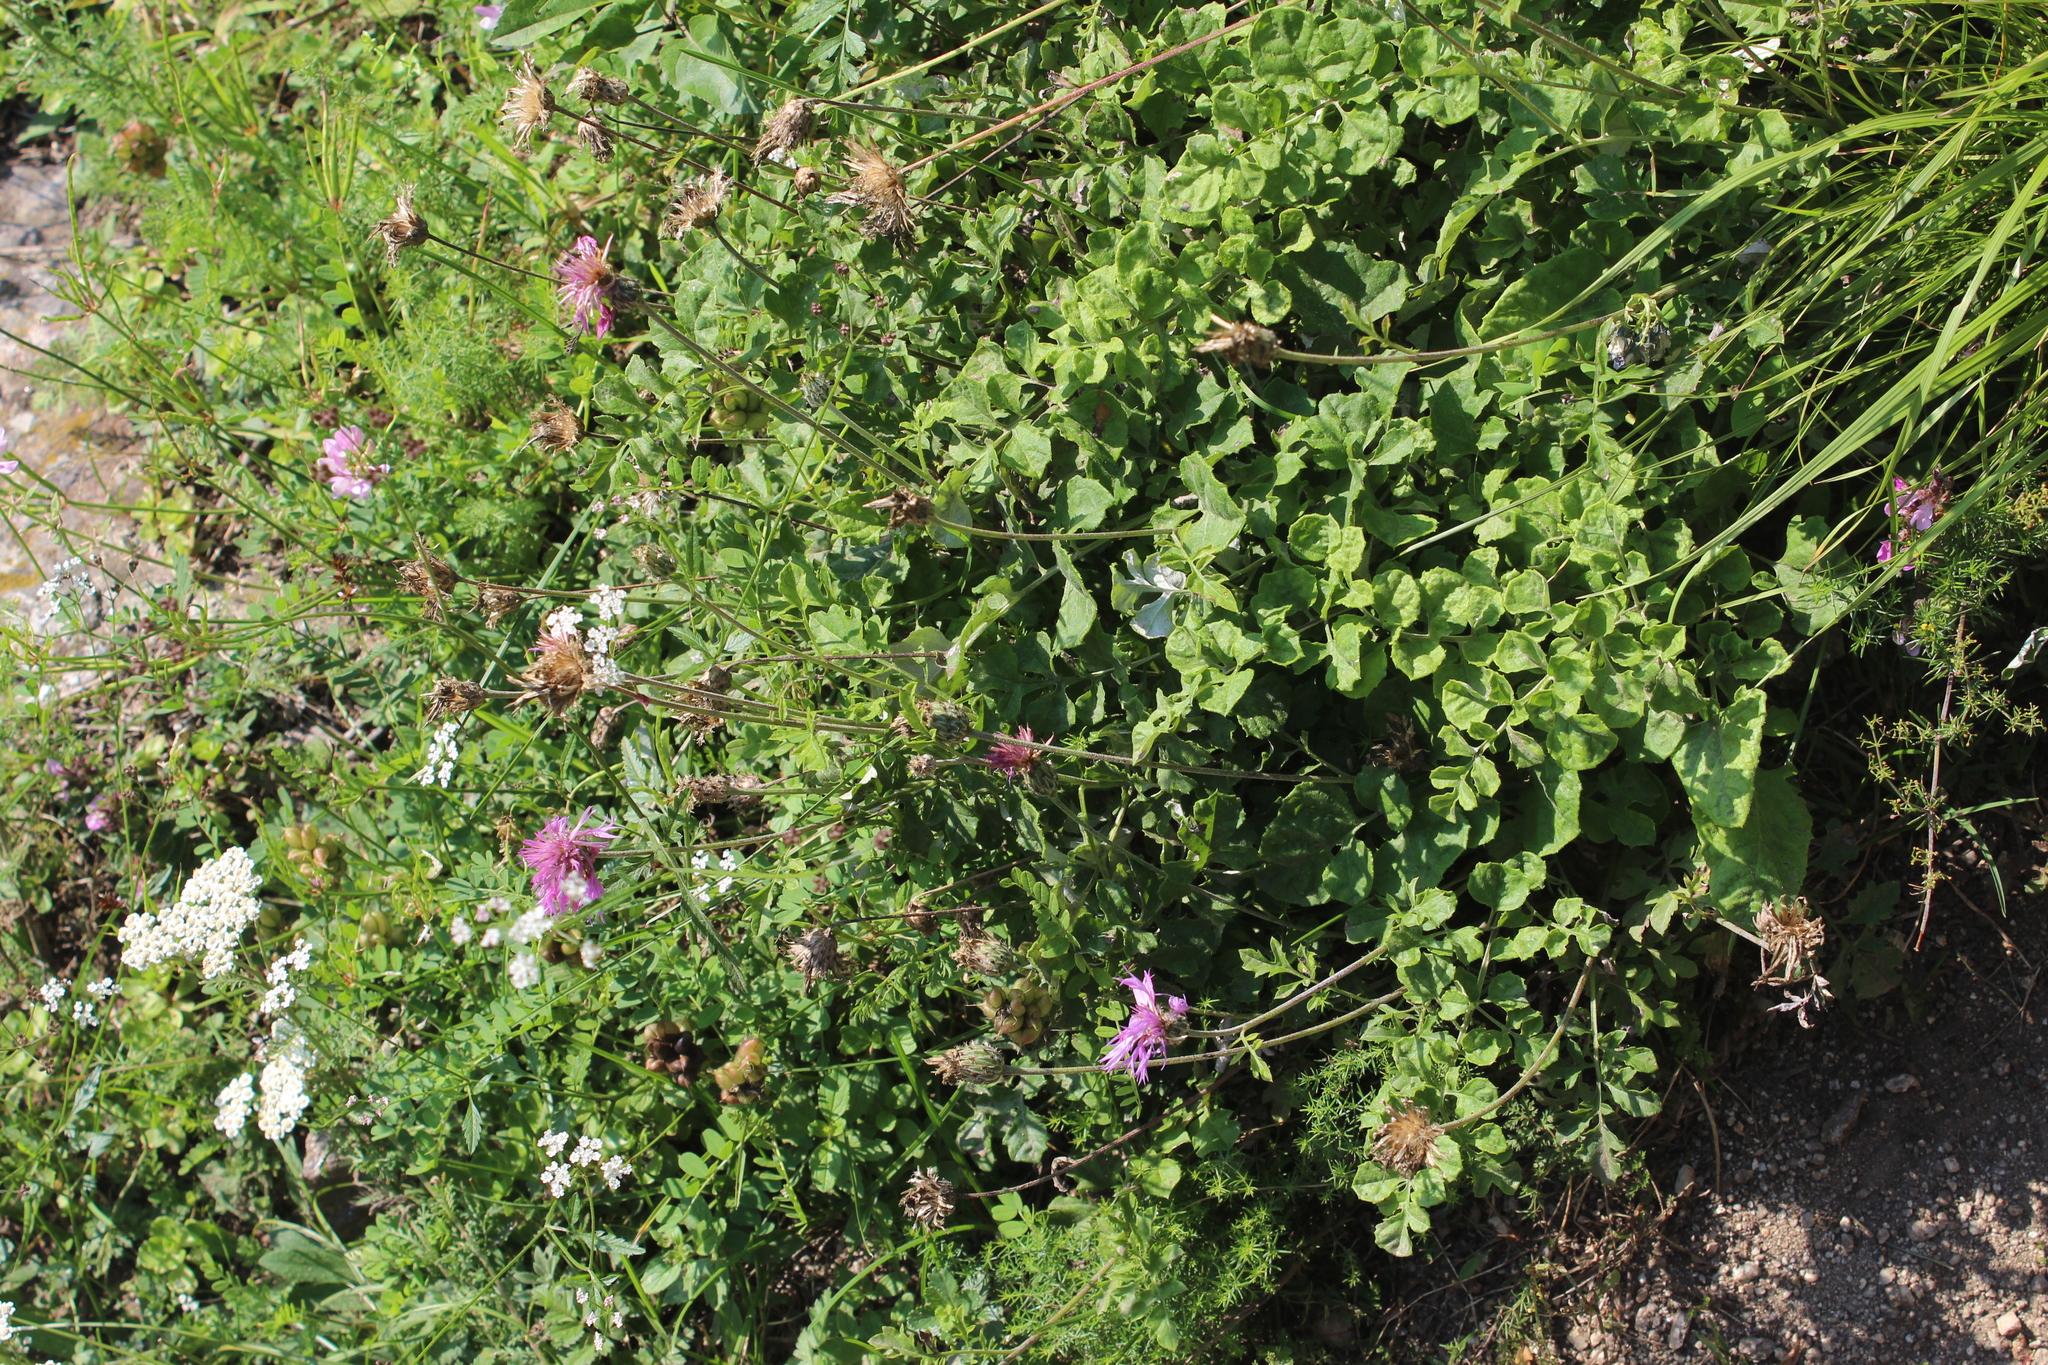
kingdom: Plantae
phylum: Tracheophyta
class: Magnoliopsida
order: Asterales
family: Asteraceae
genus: Psephellus
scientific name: Psephellus salviifolius
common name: Sage-leaved psephellus
